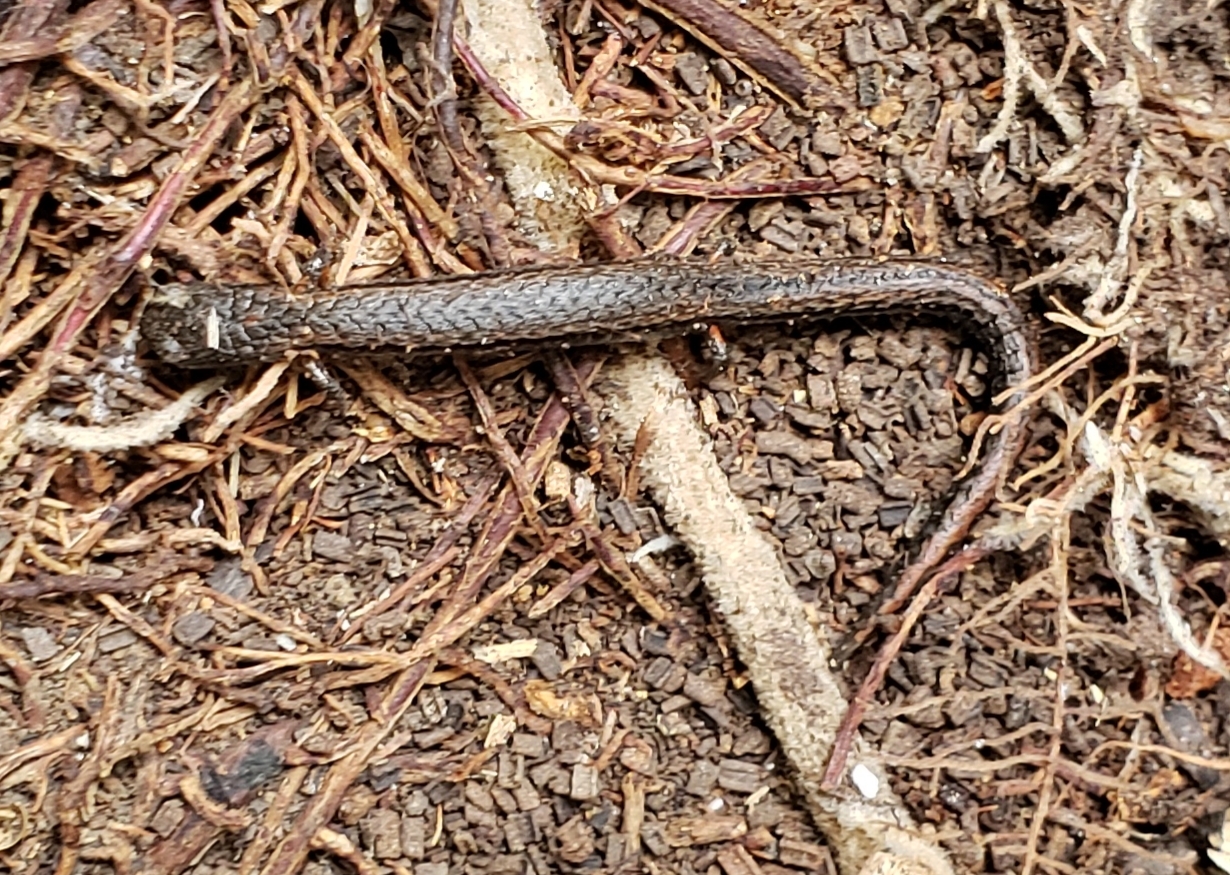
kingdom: Animalia
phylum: Chordata
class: Amphibia
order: Caudata
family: Plethodontidae
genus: Batrachoseps
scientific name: Batrachoseps attenuatus
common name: California slender salamander
